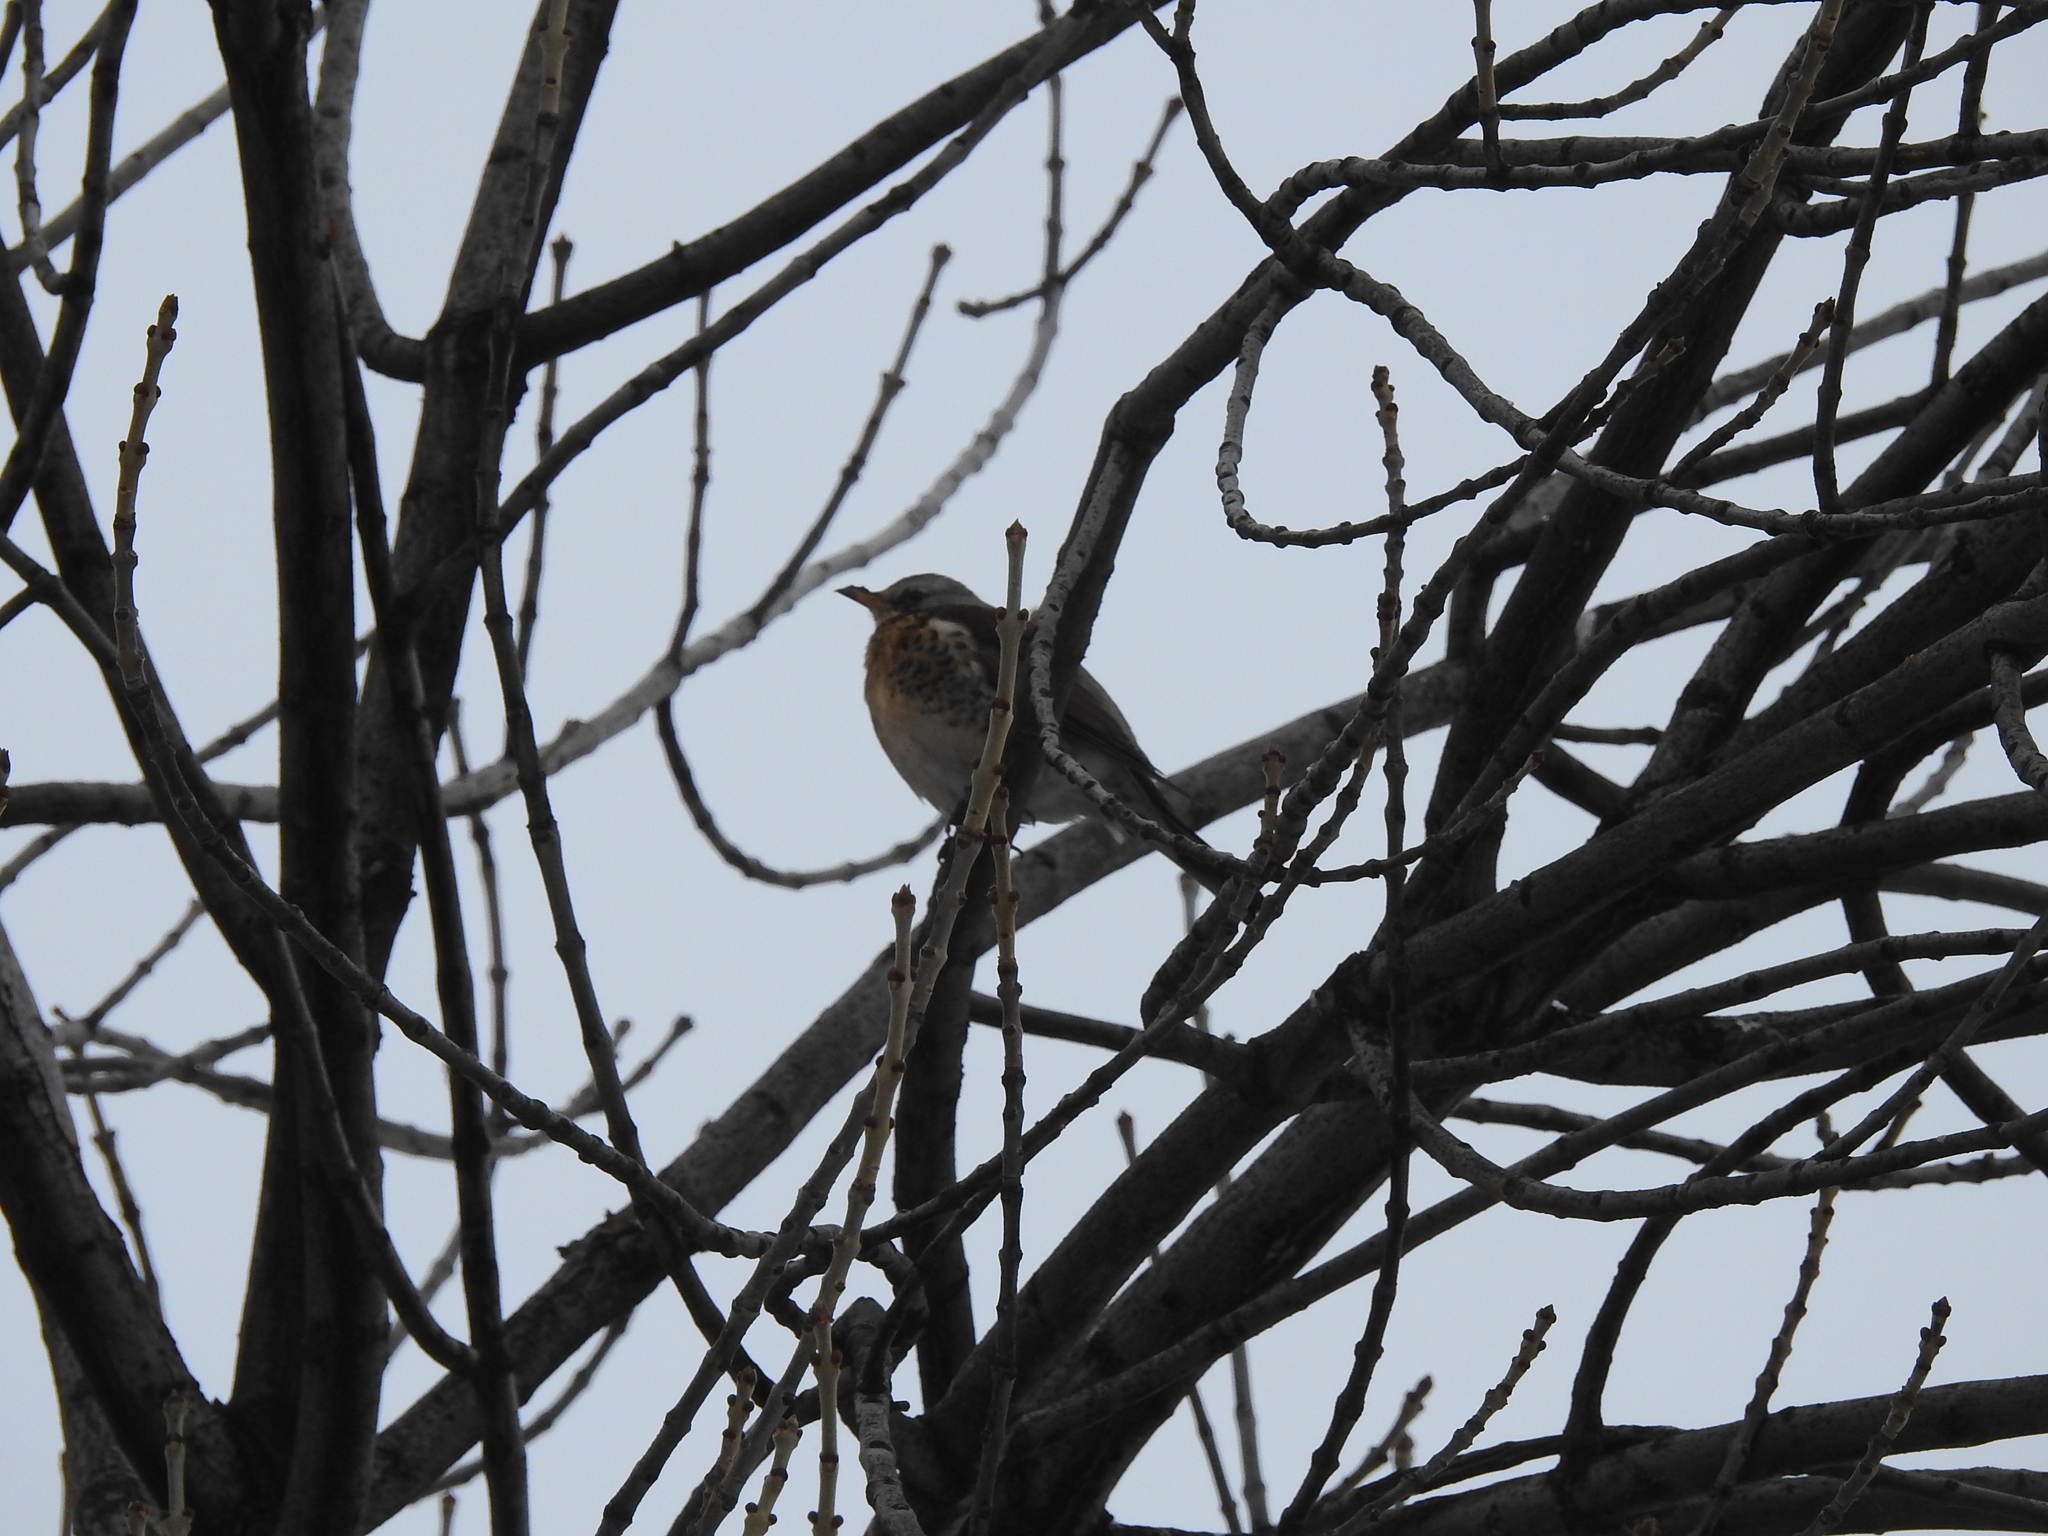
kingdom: Animalia
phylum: Chordata
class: Aves
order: Passeriformes
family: Turdidae
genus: Turdus
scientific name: Turdus pilaris
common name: Fieldfare
